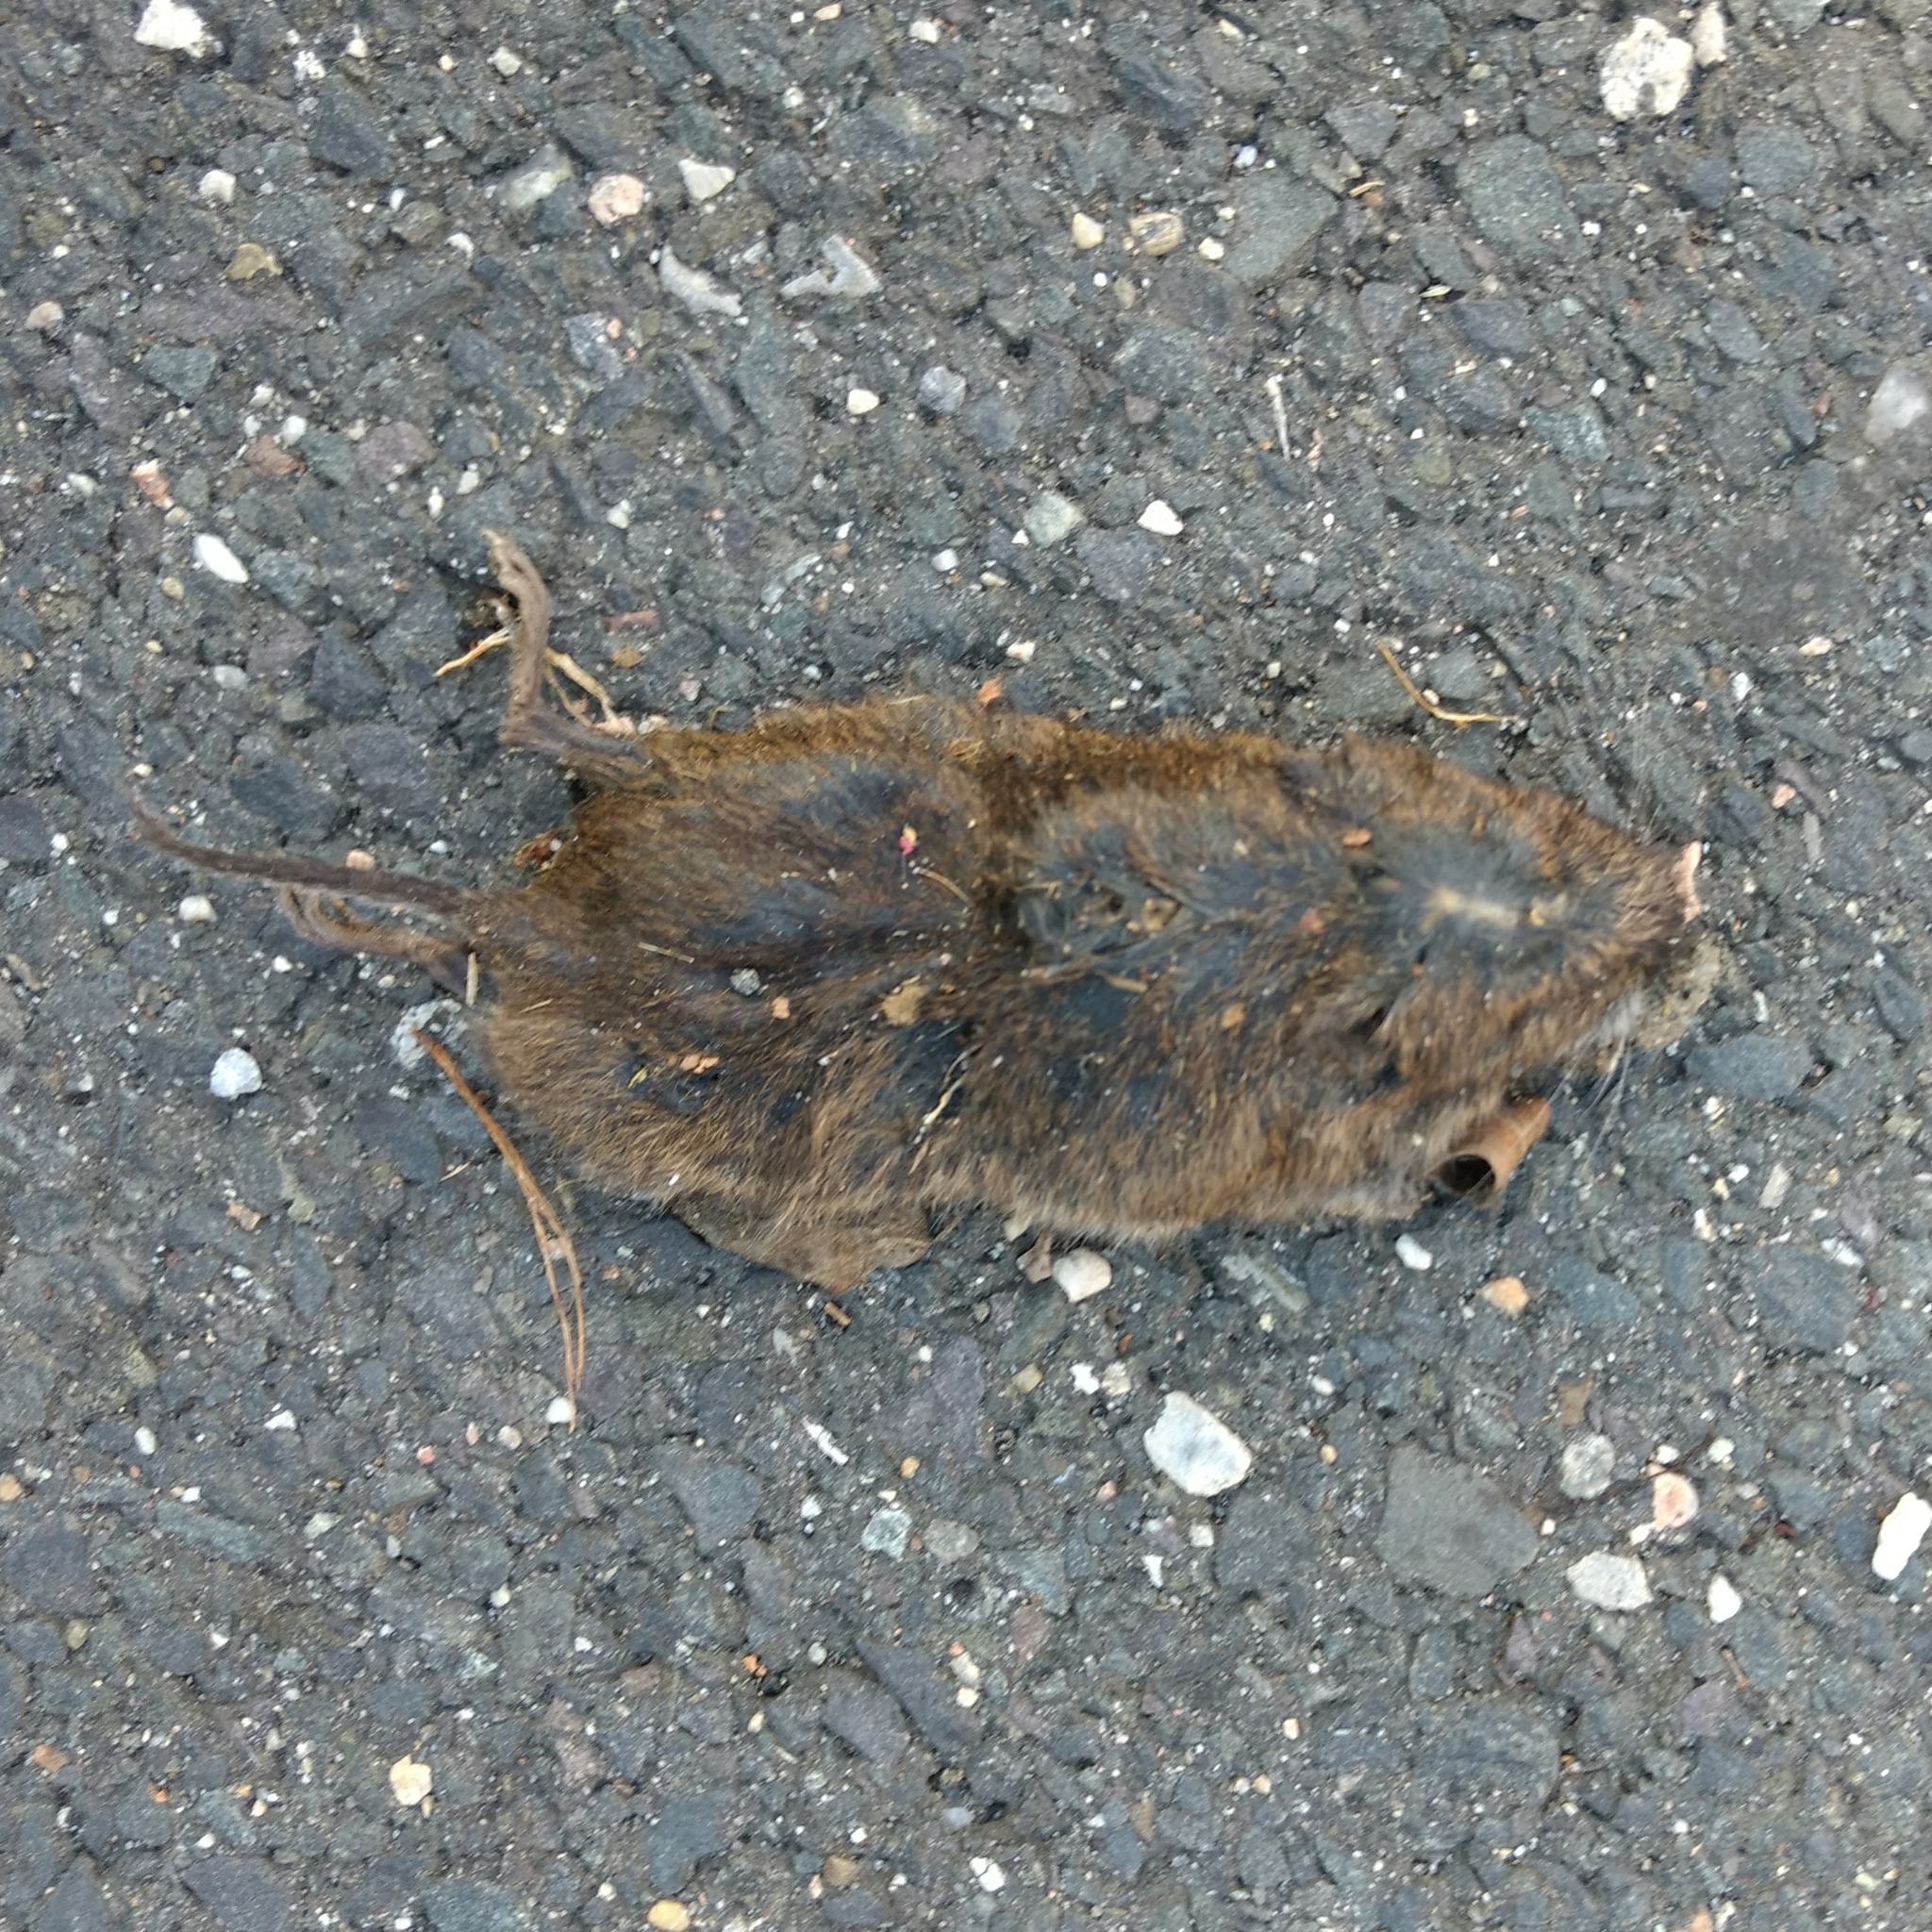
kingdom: Animalia
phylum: Chordata
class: Mammalia
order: Rodentia
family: Cricetidae
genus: Microtus
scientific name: Microtus pennsylvanicus
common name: Meadow vole
